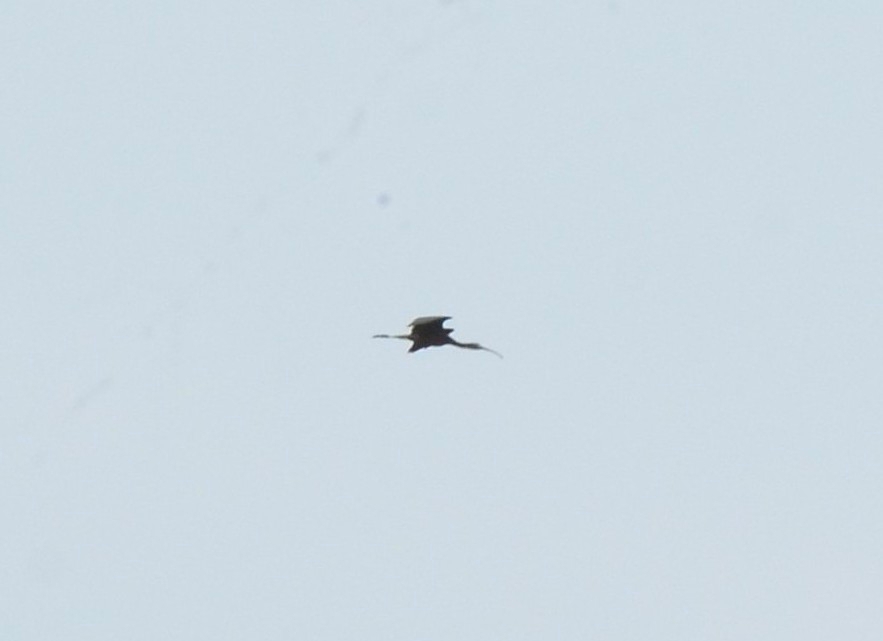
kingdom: Animalia
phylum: Chordata
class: Aves
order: Pelecaniformes
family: Threskiornithidae
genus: Plegadis
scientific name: Plegadis falcinellus
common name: Glossy ibis
